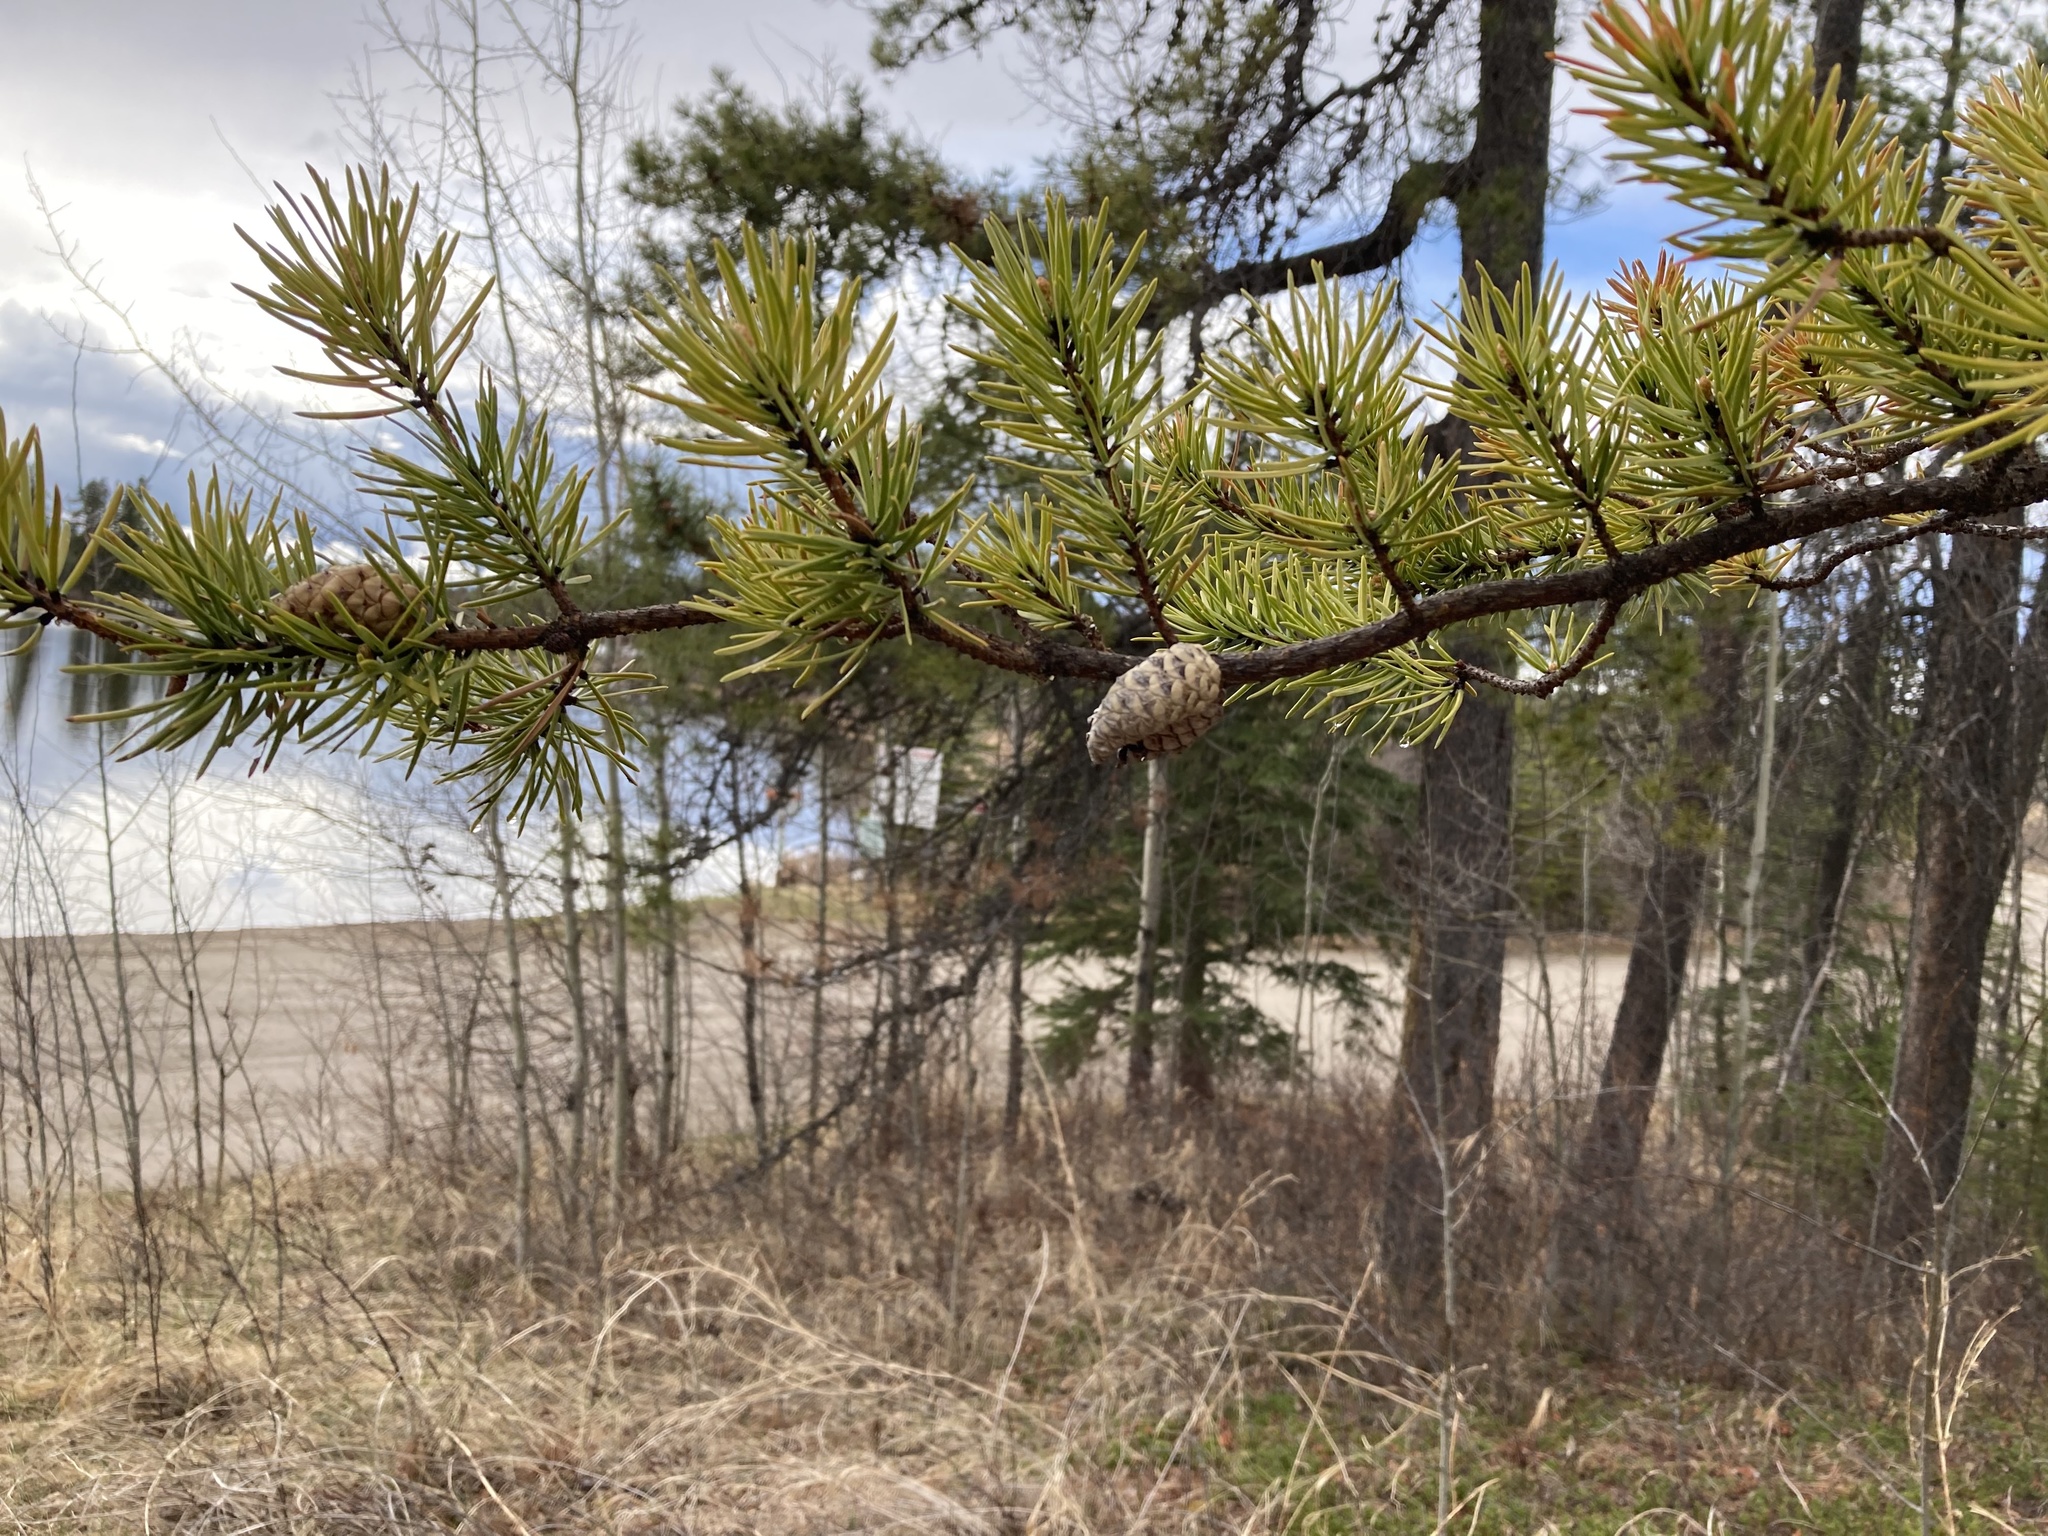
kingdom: Plantae
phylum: Tracheophyta
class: Pinopsida
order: Pinales
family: Pinaceae
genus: Pinus
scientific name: Pinus banksiana
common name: Jack pine
